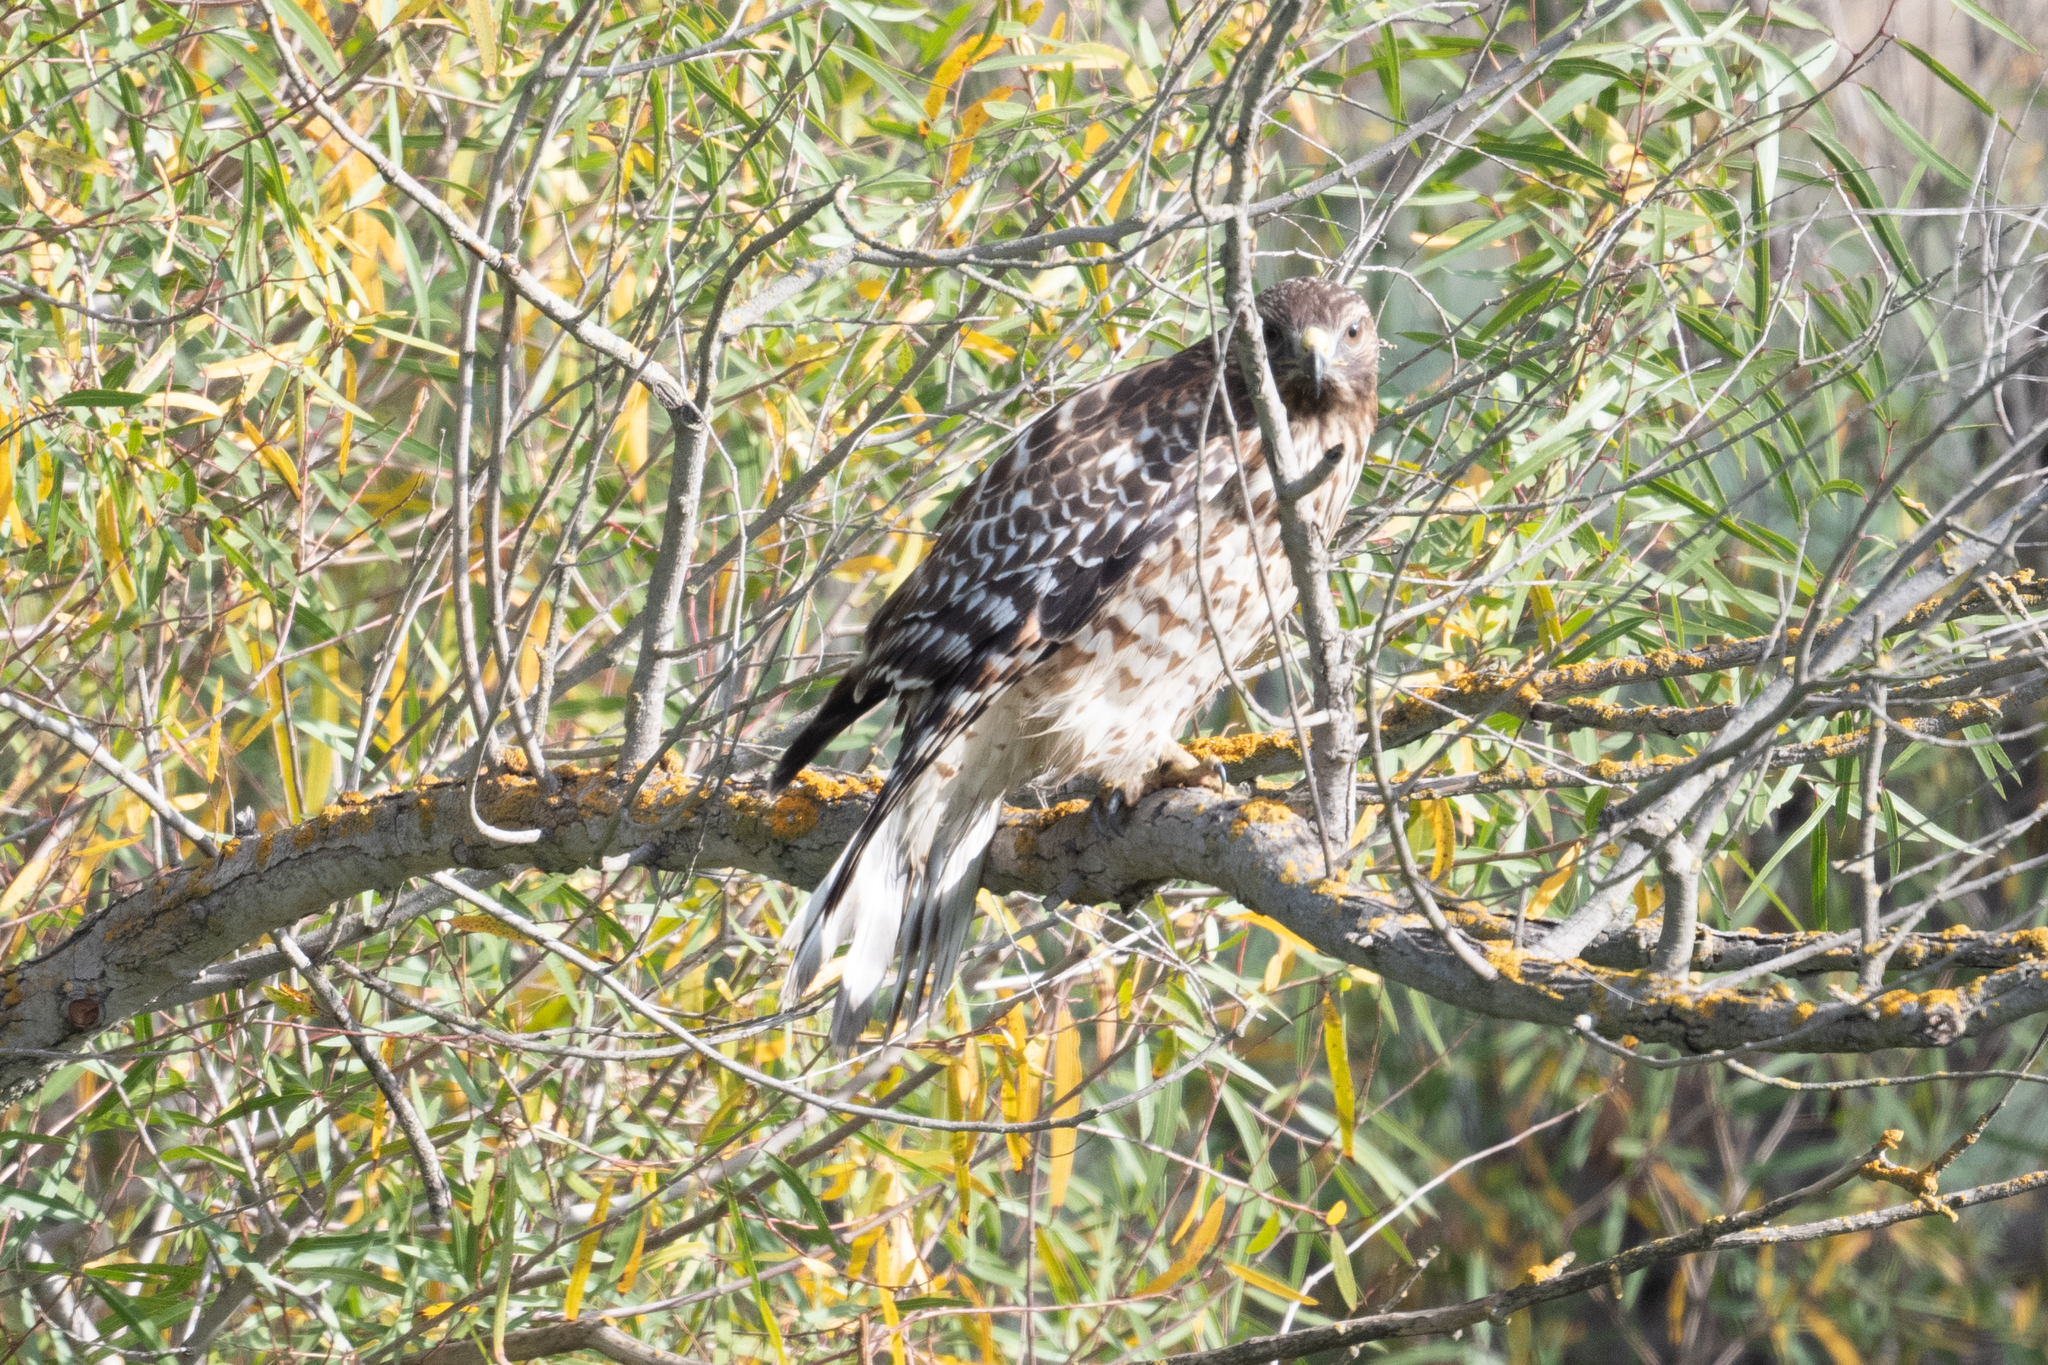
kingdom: Animalia
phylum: Chordata
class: Aves
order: Accipitriformes
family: Accipitridae
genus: Buteo
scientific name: Buteo lineatus
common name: Red-shouldered hawk
